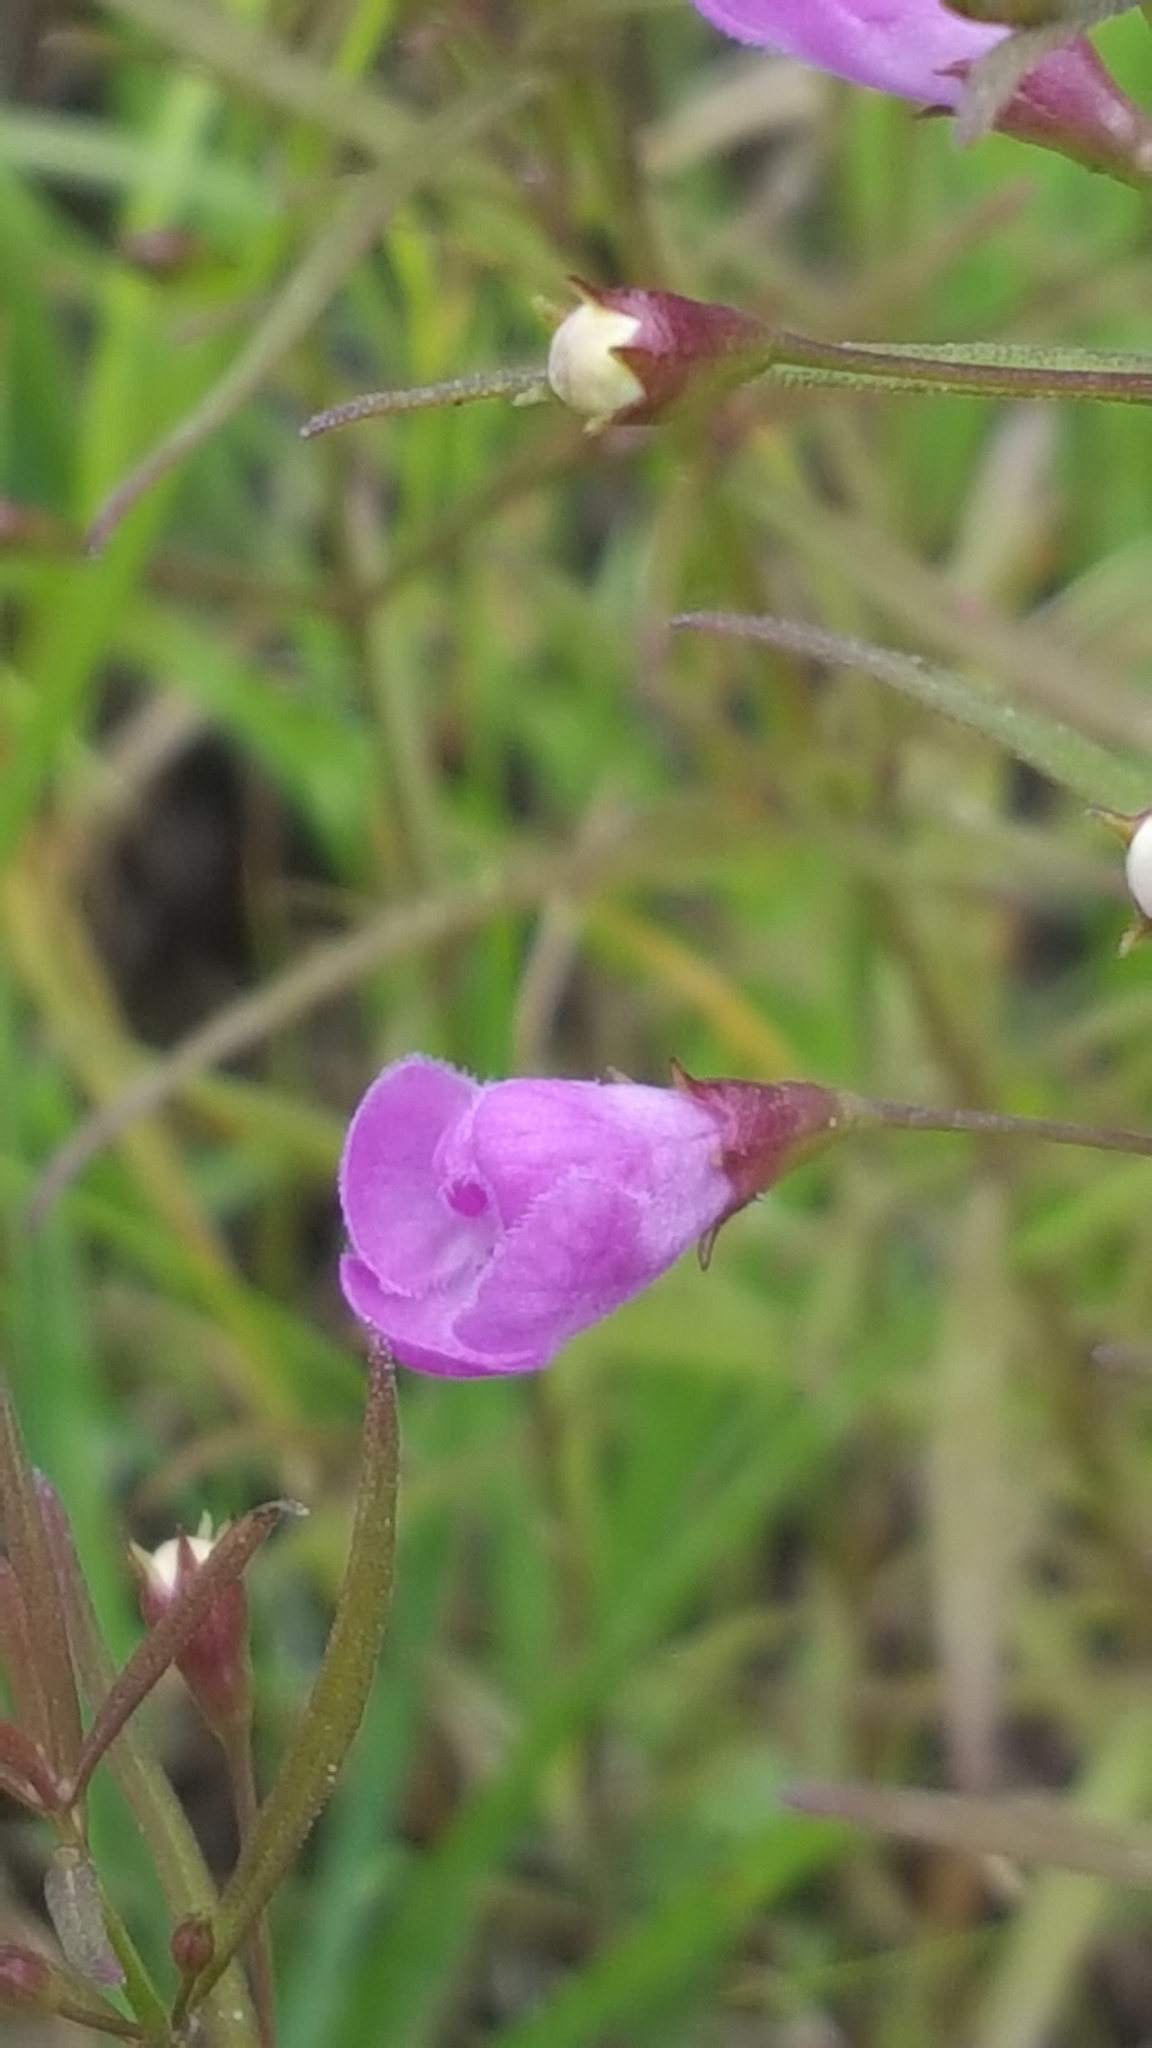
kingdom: Plantae
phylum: Tracheophyta
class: Magnoliopsida
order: Lamiales
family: Orobanchaceae
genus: Agalinis
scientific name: Agalinis tenuifolia
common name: Slender agalinis
